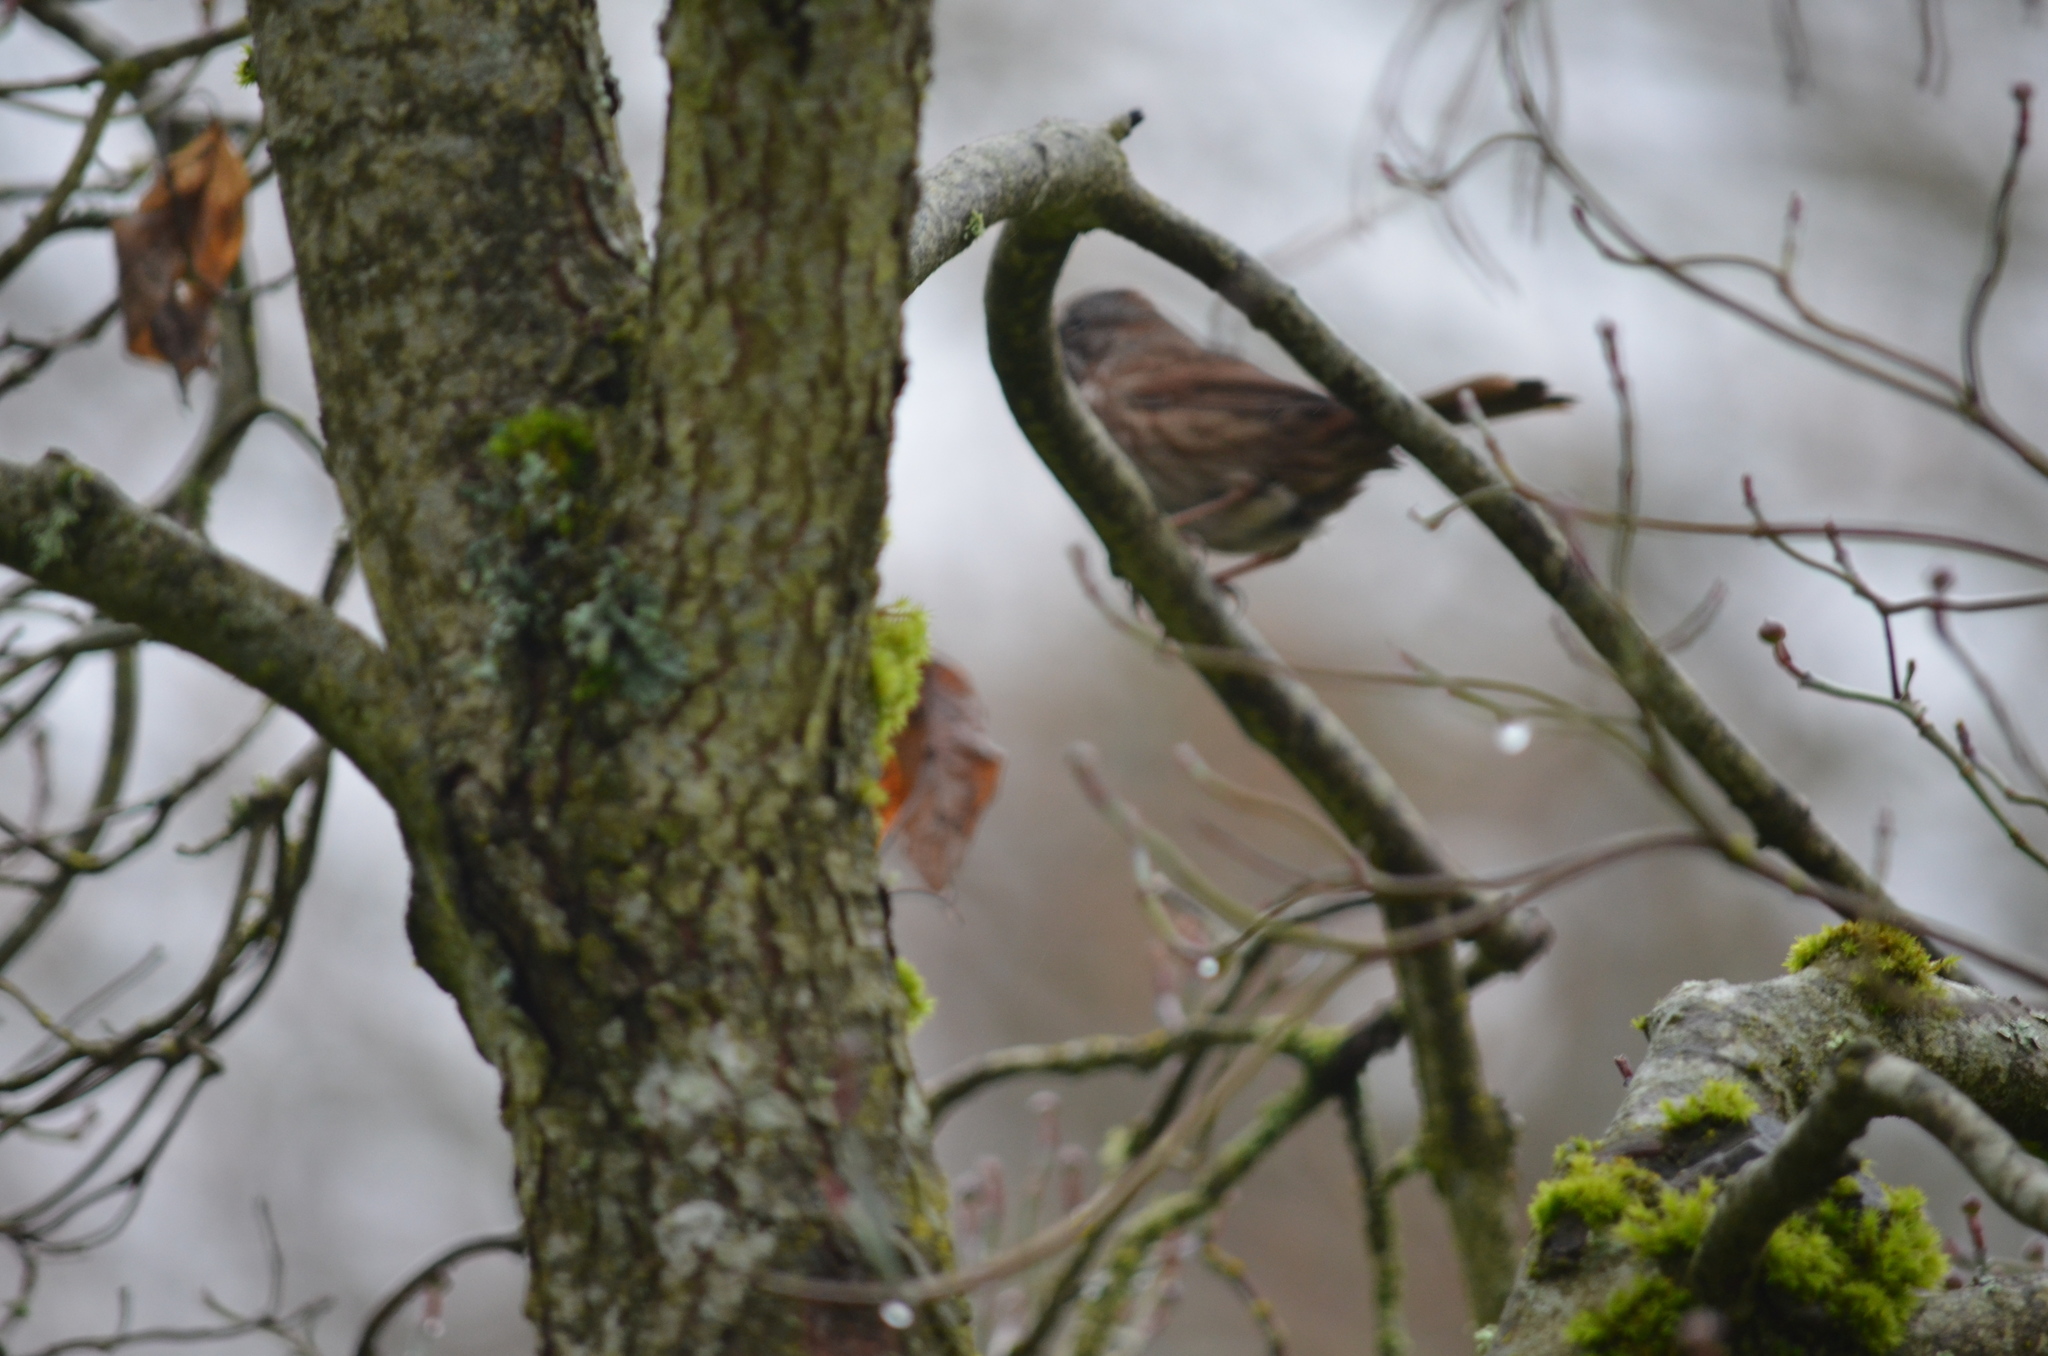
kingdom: Animalia
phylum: Chordata
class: Aves
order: Passeriformes
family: Passerellidae
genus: Melospiza
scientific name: Melospiza melodia
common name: Song sparrow
